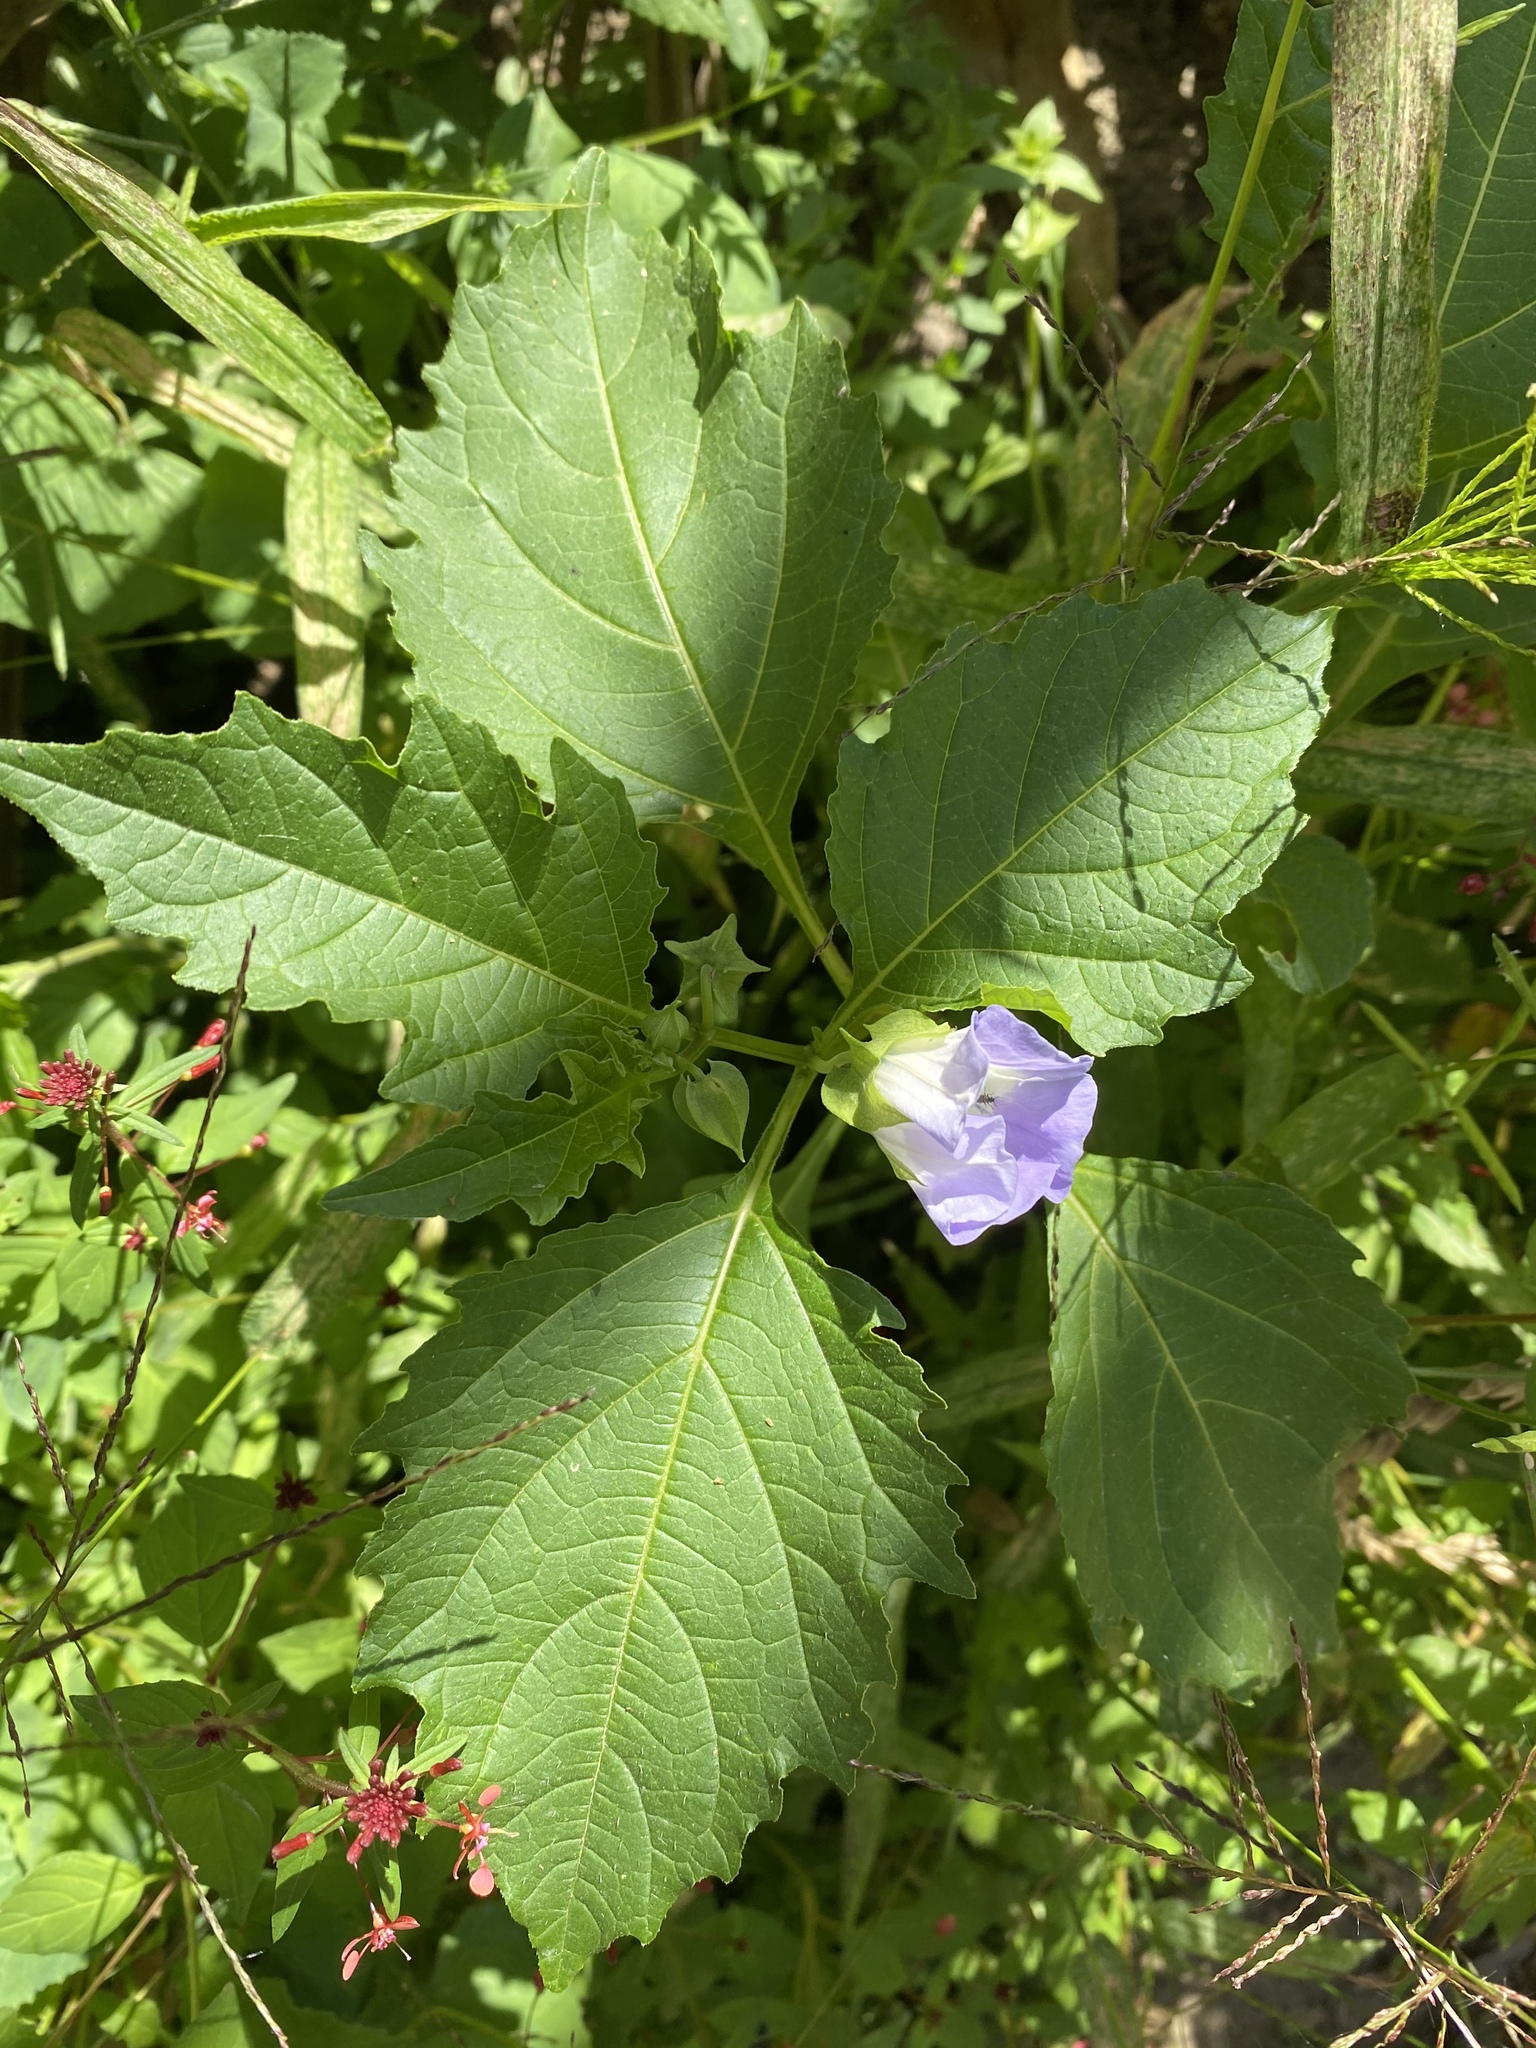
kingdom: Plantae
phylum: Tracheophyta
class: Magnoliopsida
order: Solanales
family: Solanaceae
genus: Nicandra
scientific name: Nicandra physalodes
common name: Apple-of-peru
